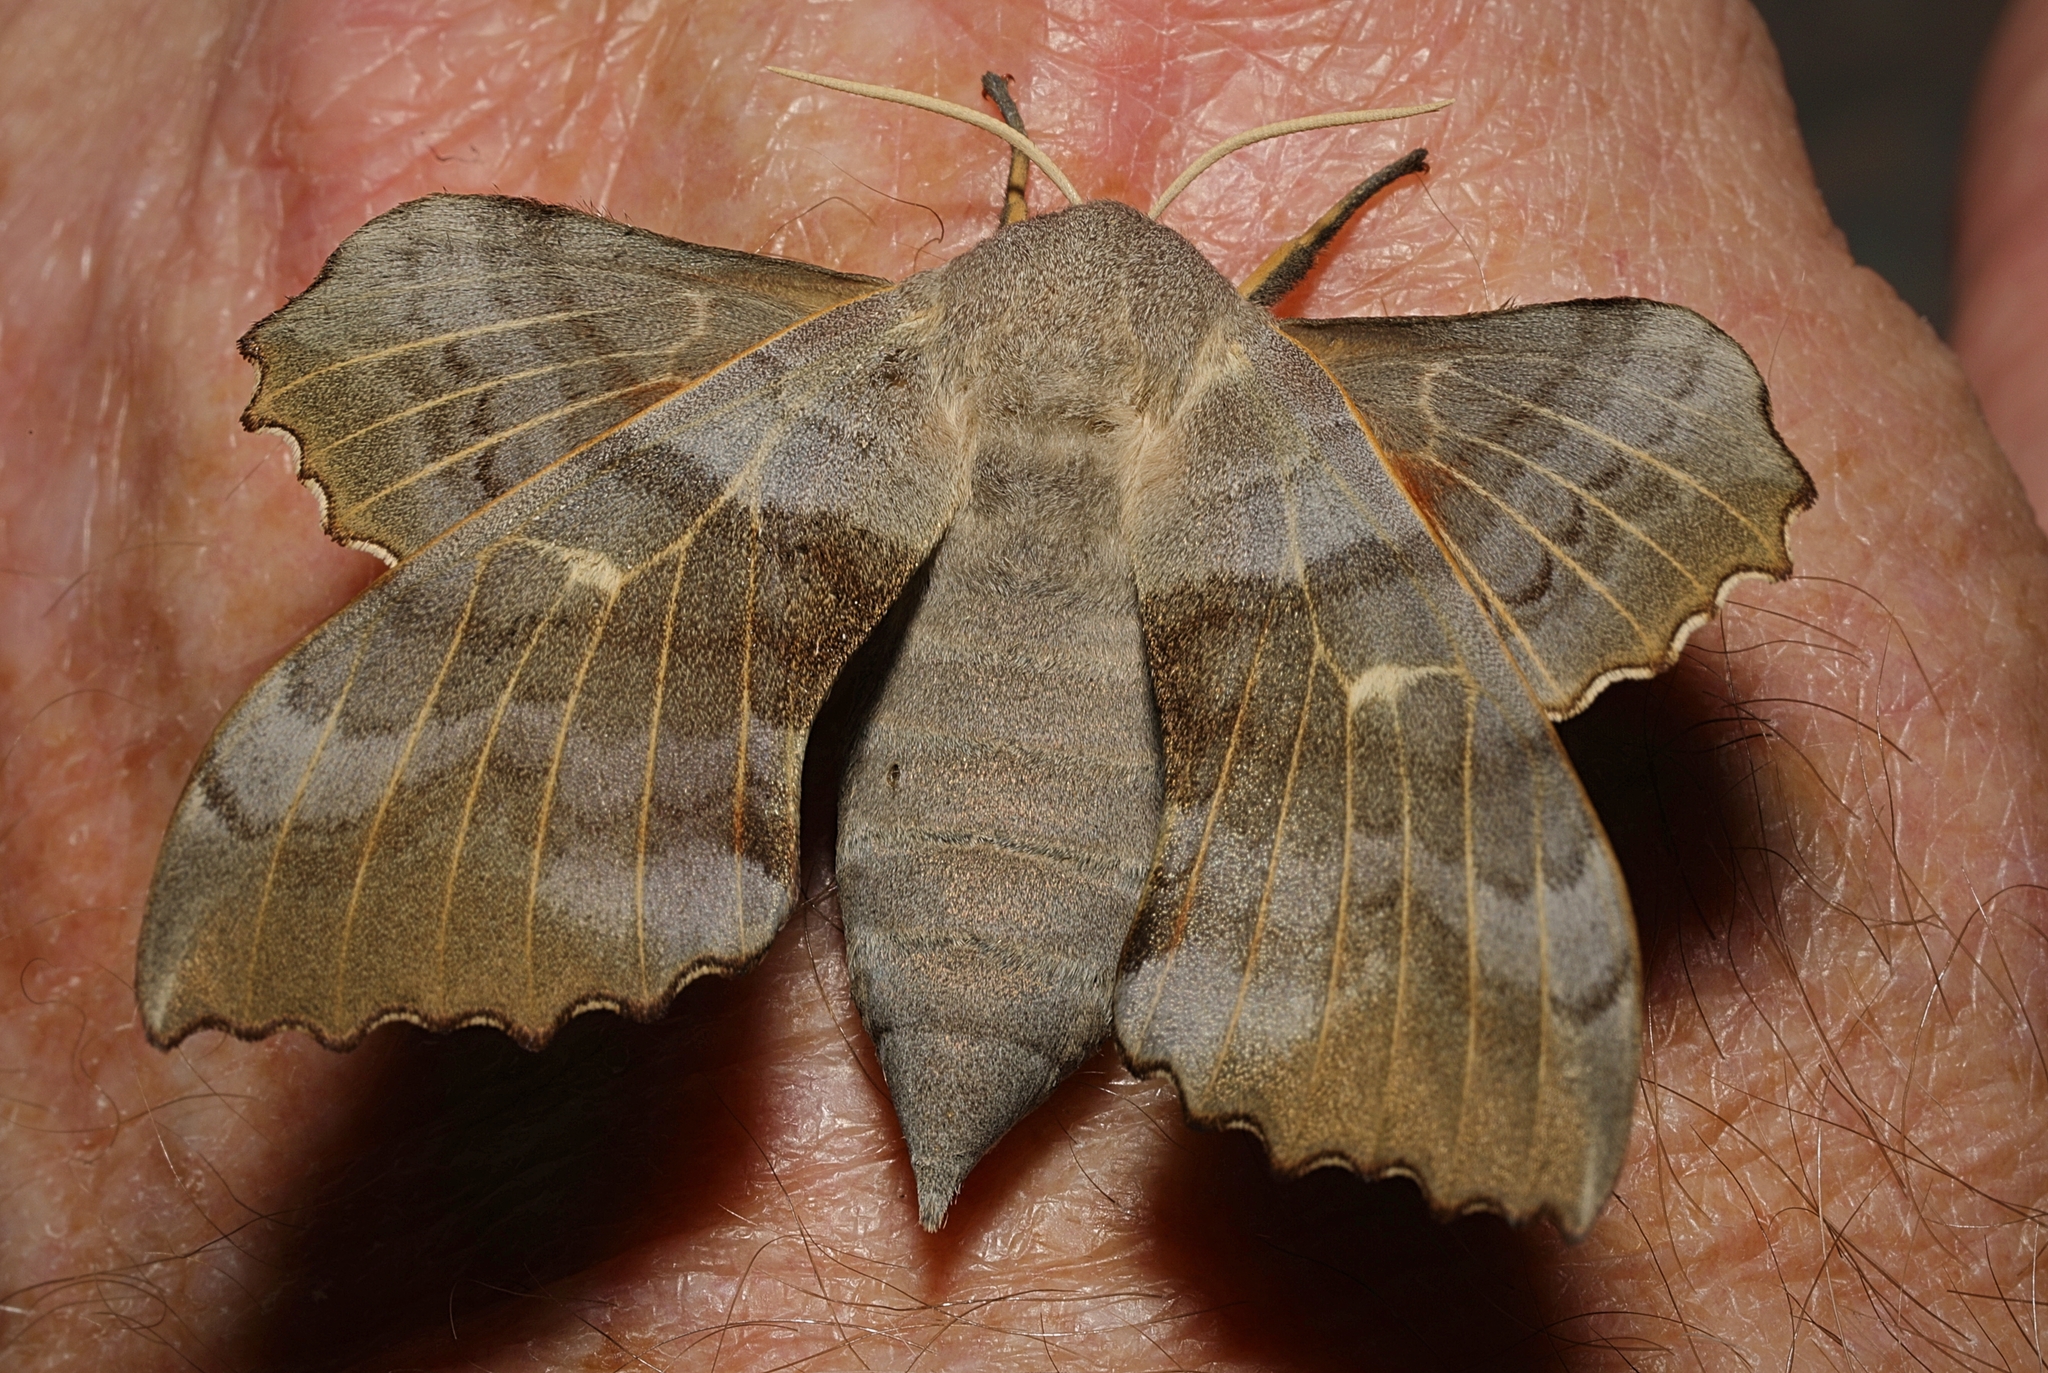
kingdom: Animalia
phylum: Arthropoda
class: Insecta
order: Lepidoptera
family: Sphingidae
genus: Laothoe
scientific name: Laothoe populi
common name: Poplar hawk-moth
